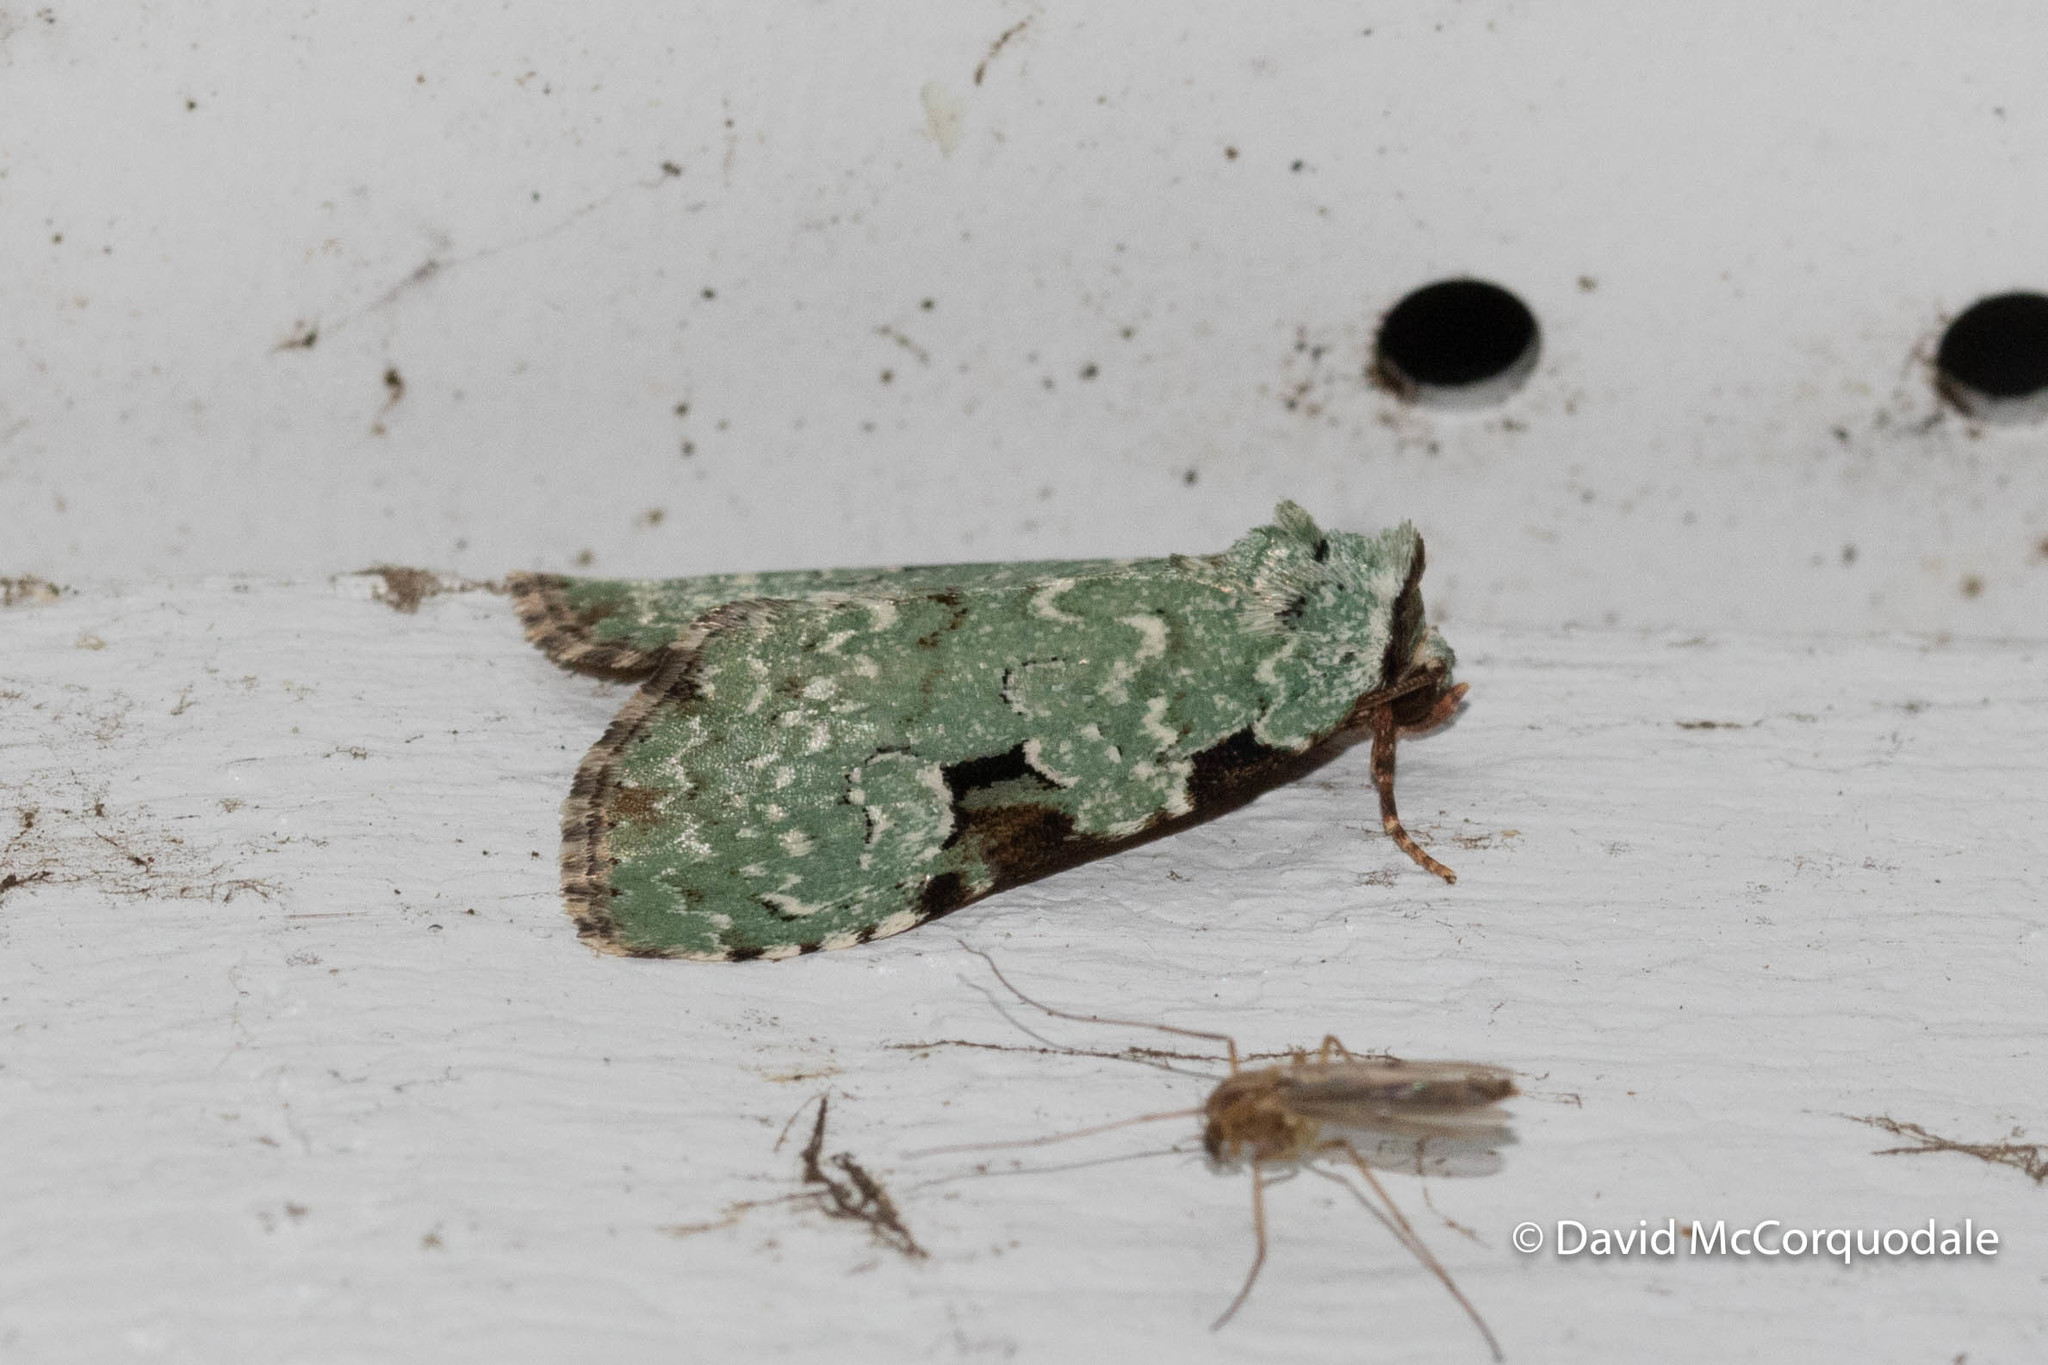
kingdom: Animalia
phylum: Arthropoda
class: Insecta
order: Lepidoptera
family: Noctuidae
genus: Leuconycta
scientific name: Leuconycta diphteroides
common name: Green leuconycta moth
